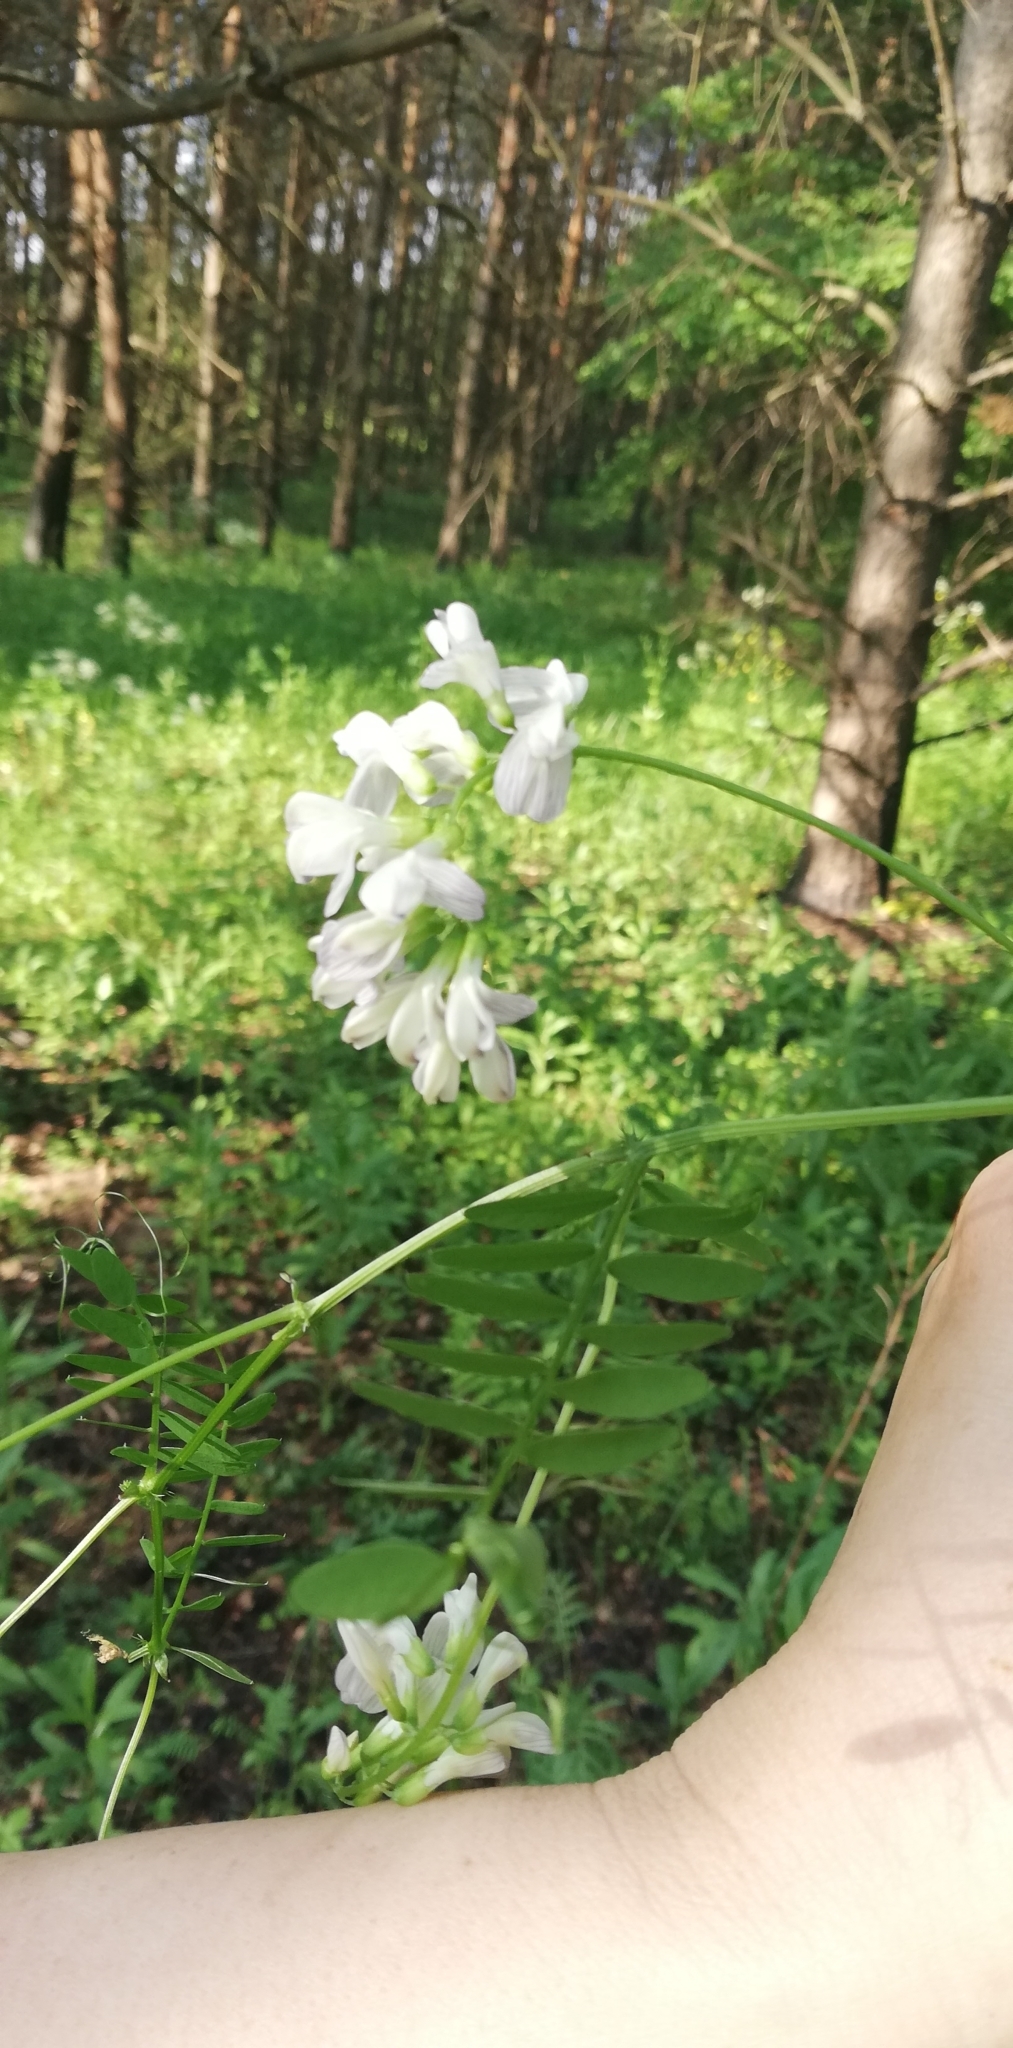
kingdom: Plantae
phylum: Tracheophyta
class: Magnoliopsida
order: Fabales
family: Fabaceae
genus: Vicia
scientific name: Vicia sylvatica
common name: Wood vetch
